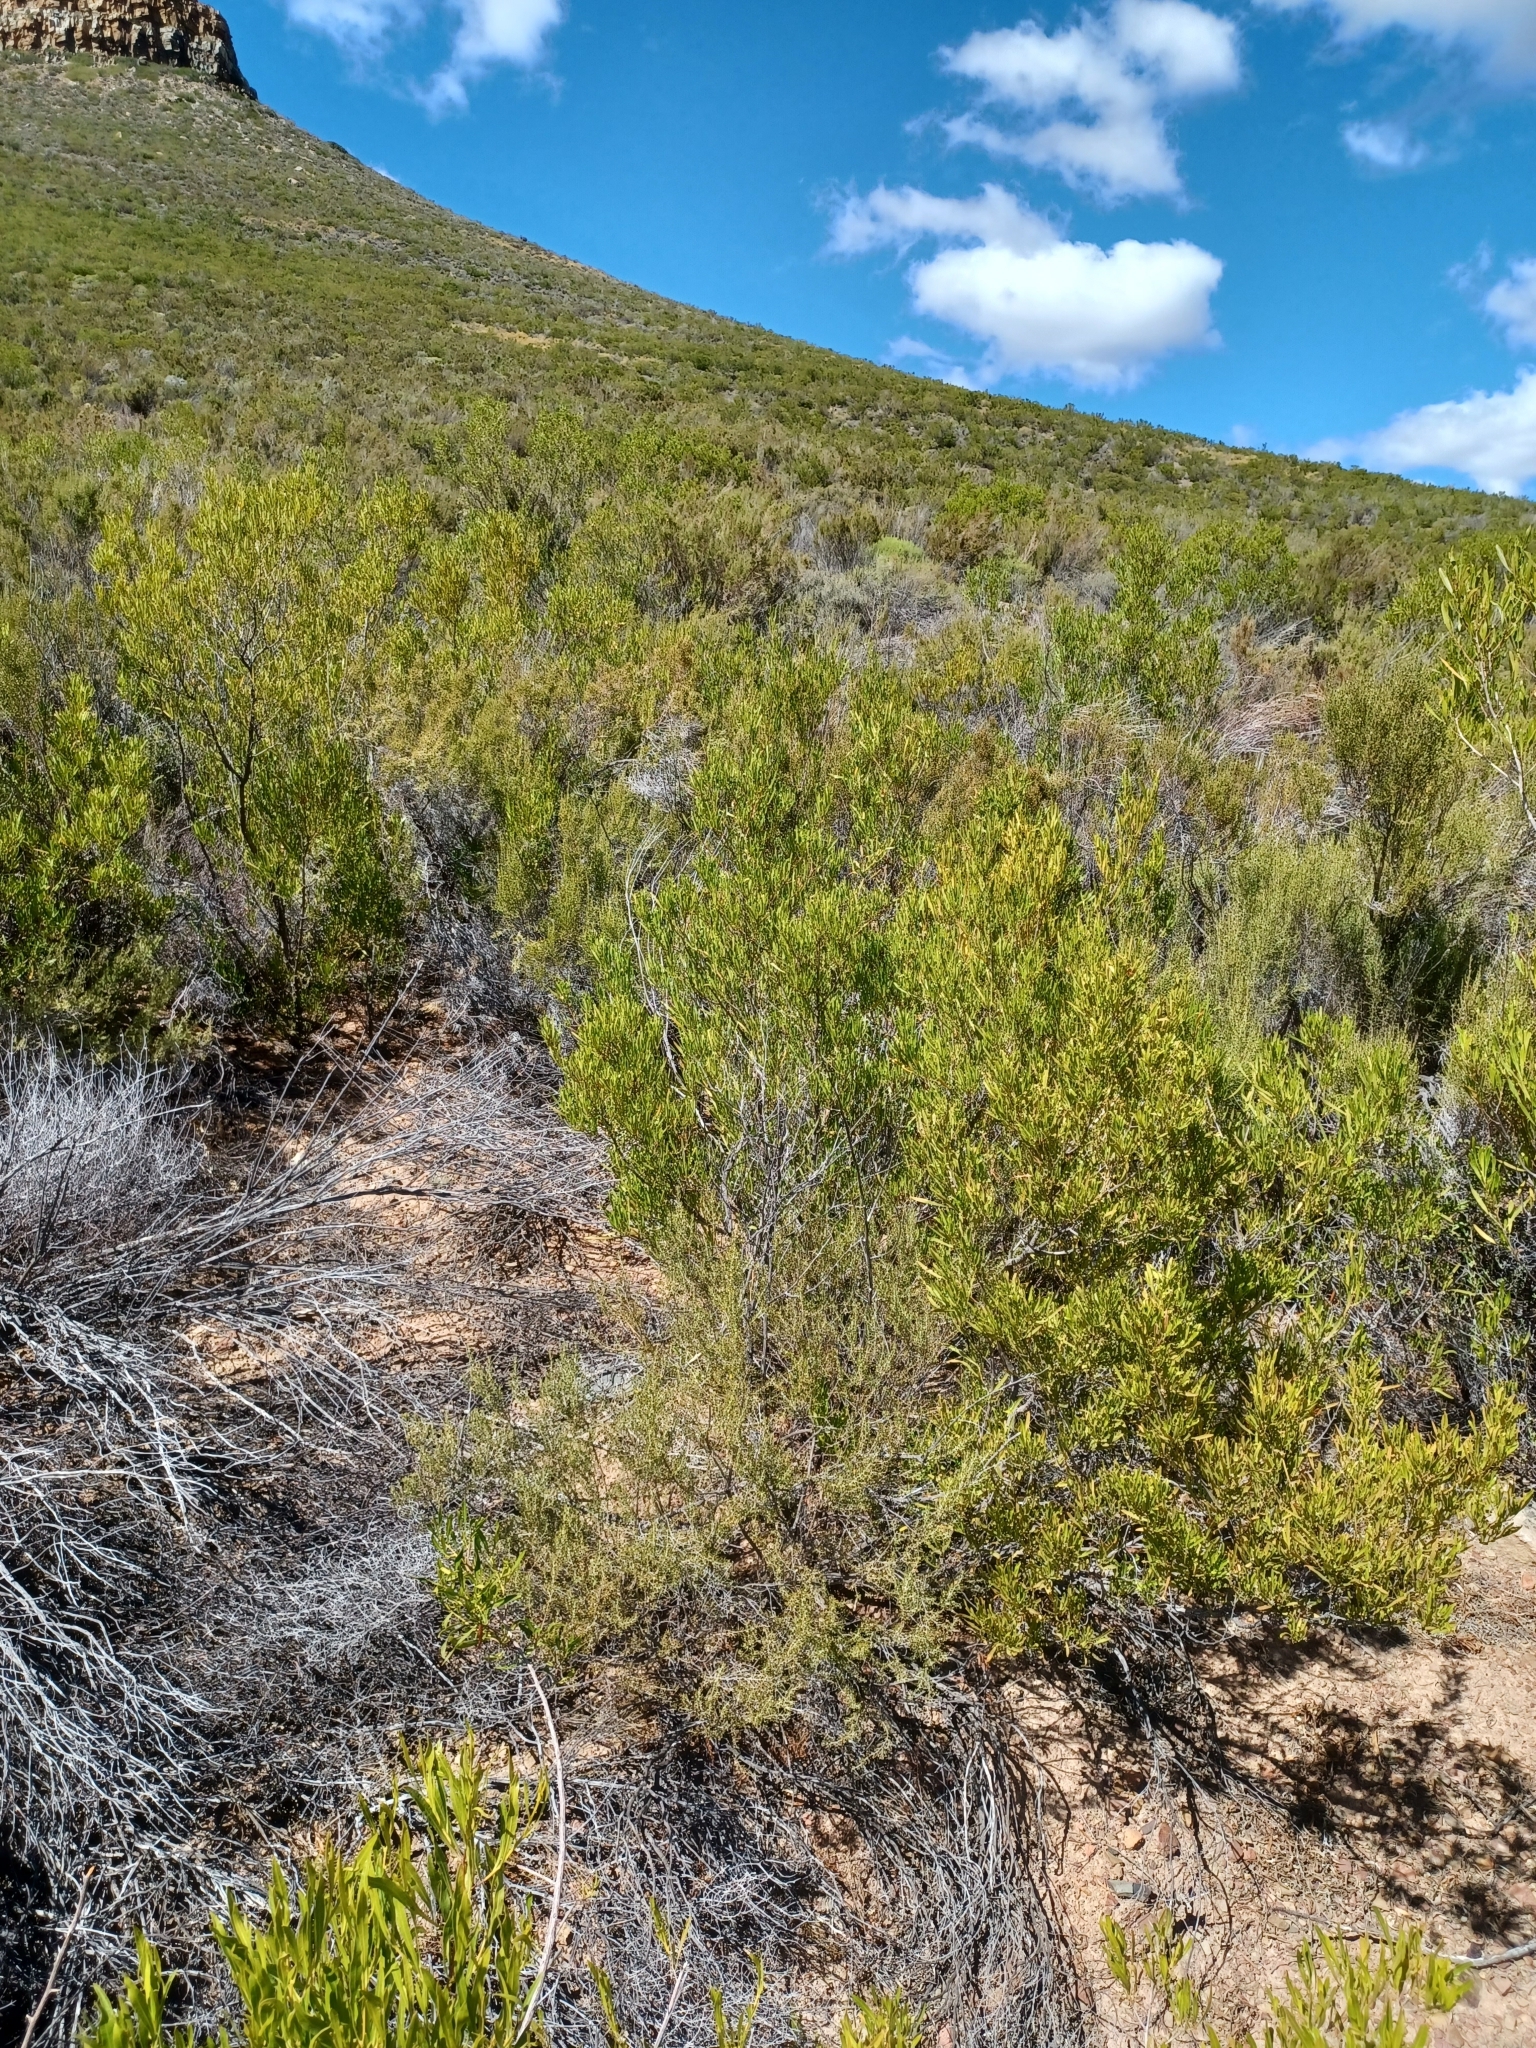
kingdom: Plantae
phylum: Tracheophyta
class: Magnoliopsida
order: Sapindales
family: Sapindaceae
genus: Dodonaea
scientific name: Dodonaea viscosa
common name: Hopbush
